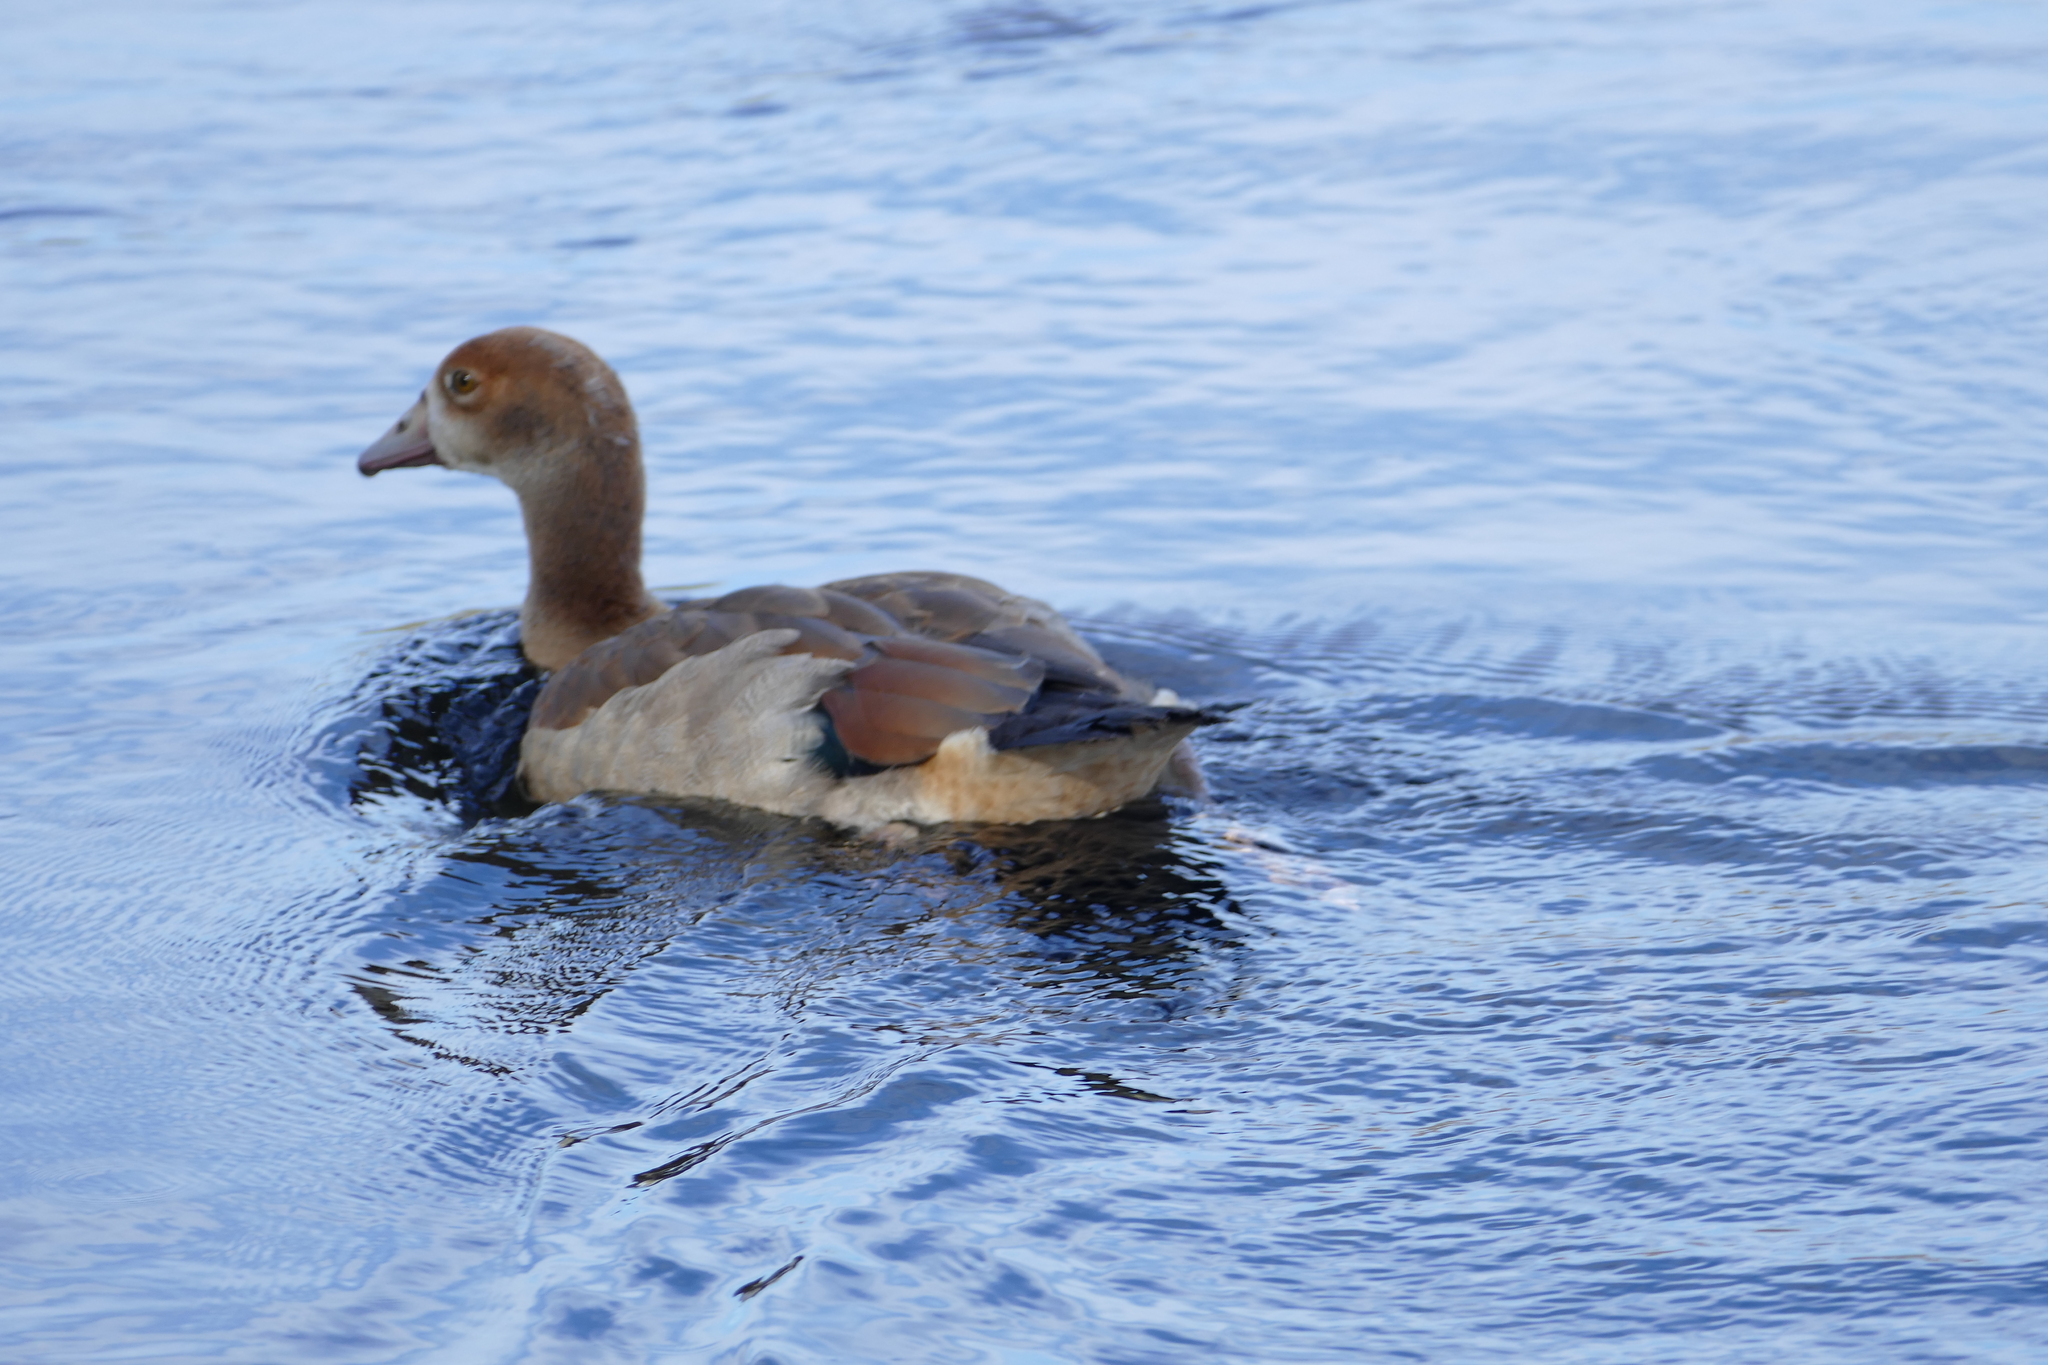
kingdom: Animalia
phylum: Chordata
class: Aves
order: Anseriformes
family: Anatidae
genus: Alopochen
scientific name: Alopochen aegyptiaca
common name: Egyptian goose
